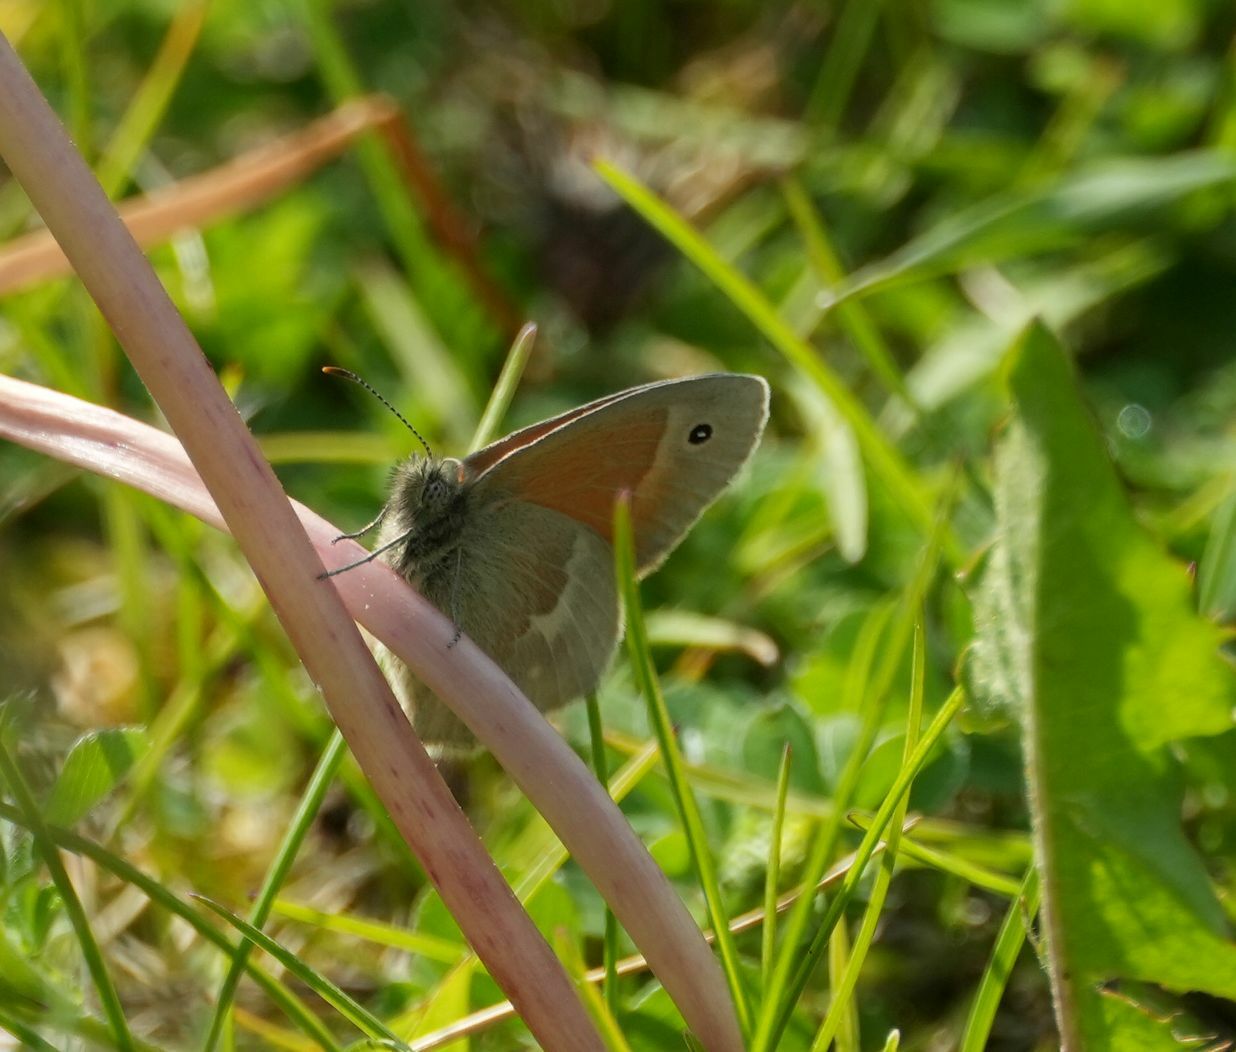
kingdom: Animalia
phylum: Arthropoda
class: Insecta
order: Lepidoptera
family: Nymphalidae
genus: Coenonympha
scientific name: Coenonympha california
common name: Common ringlet
